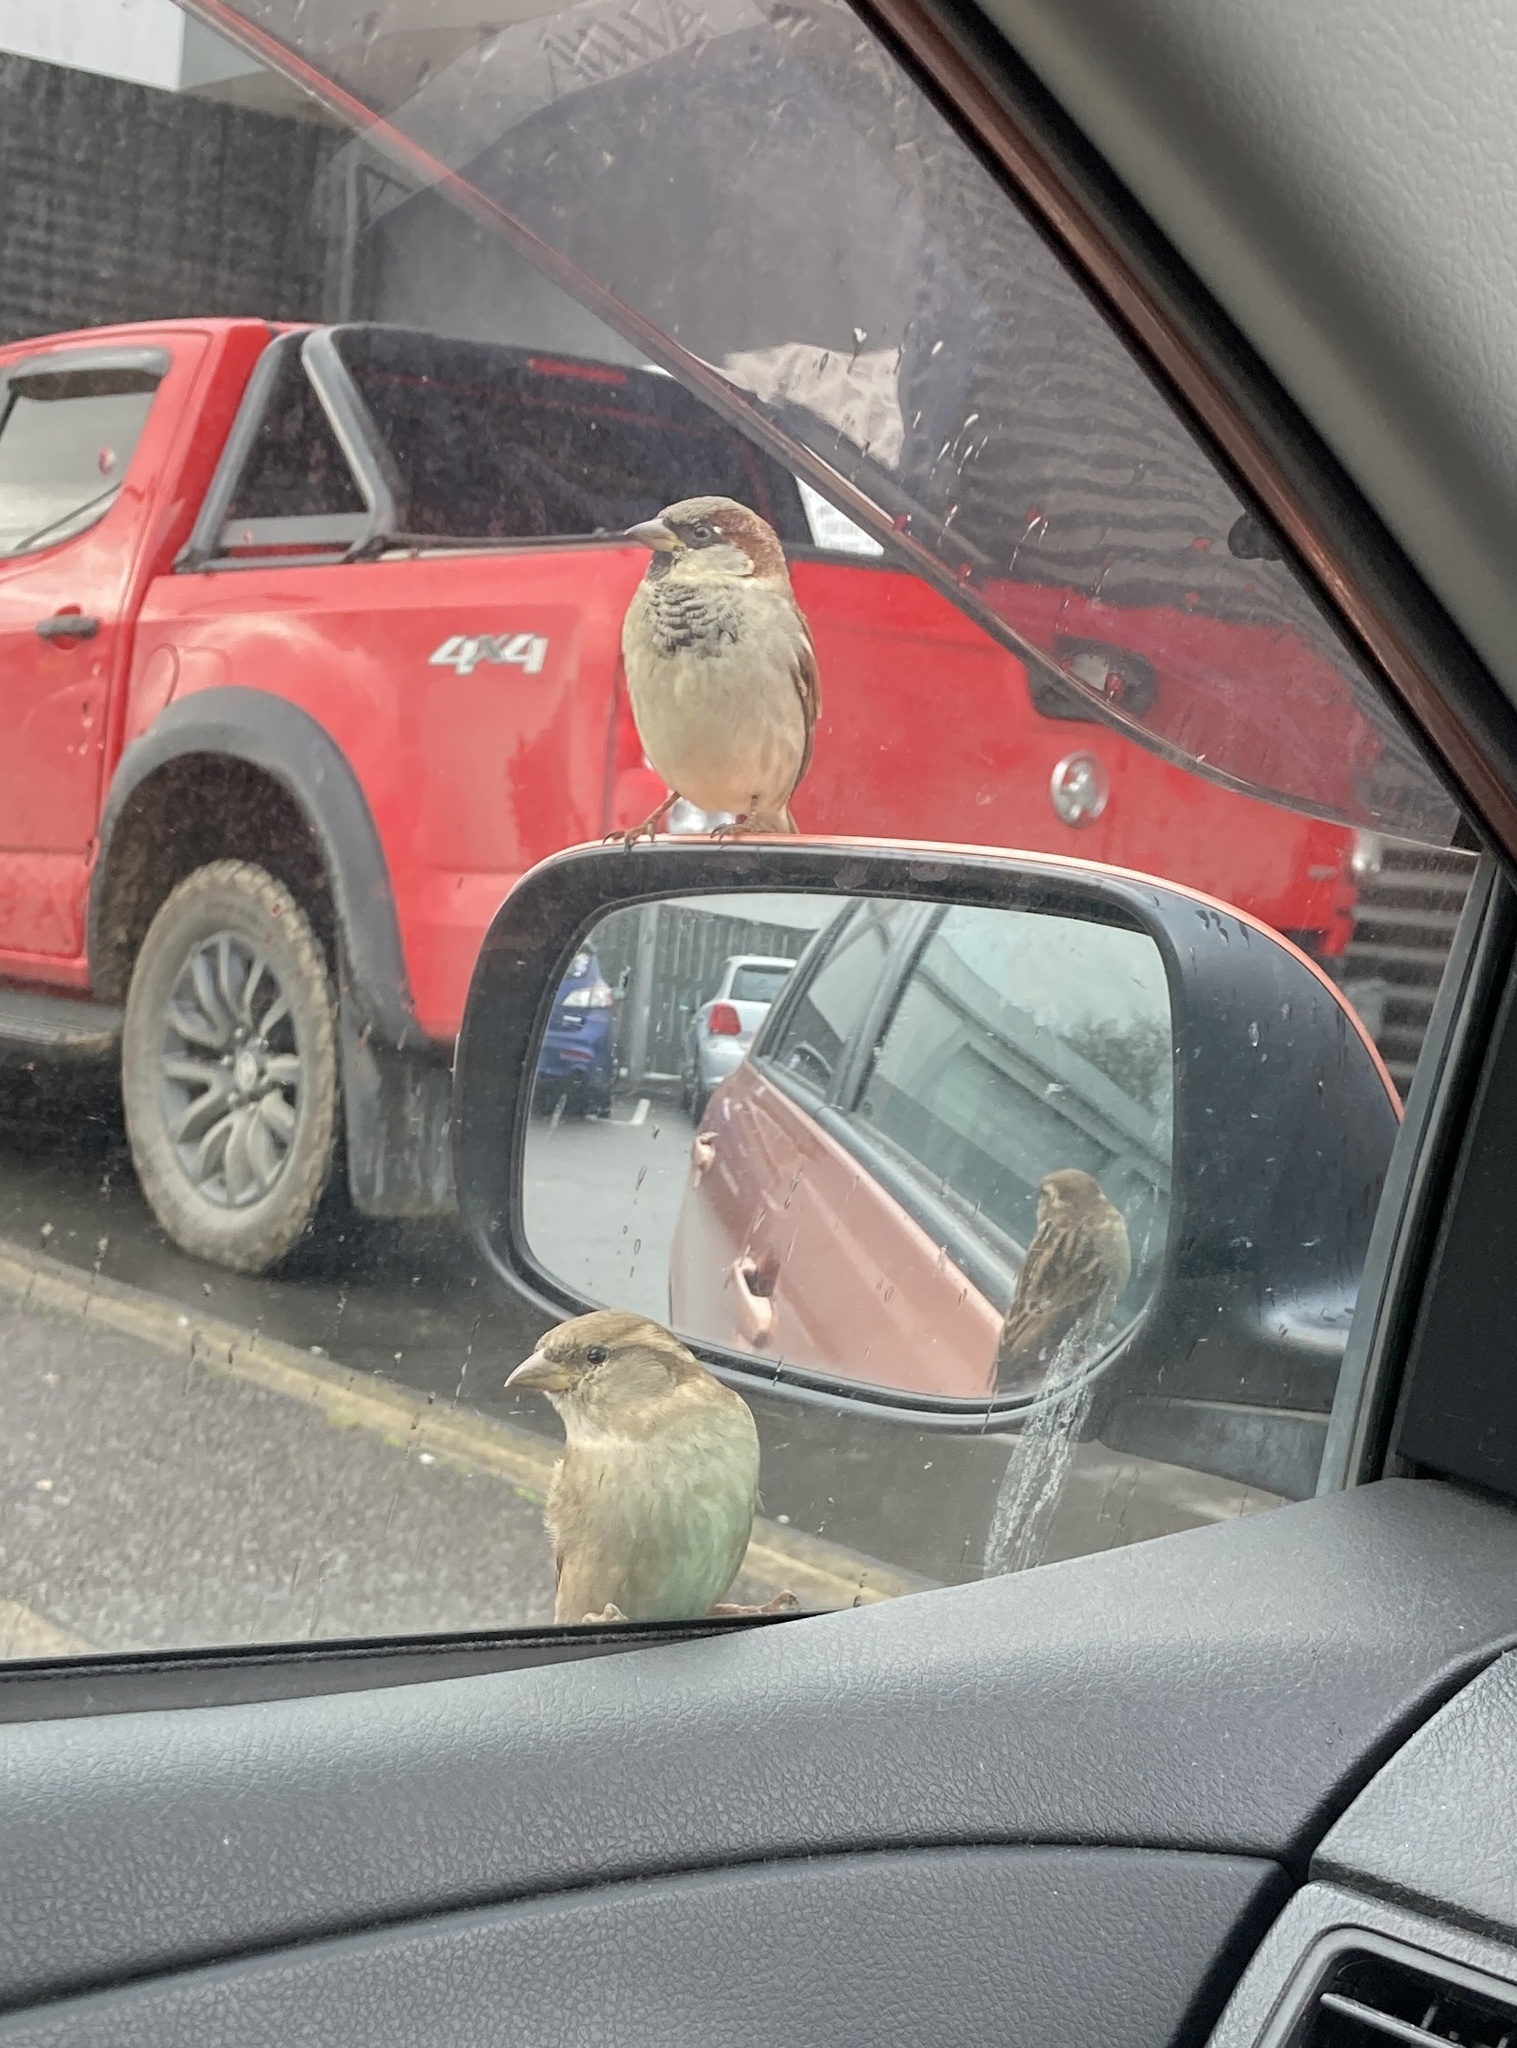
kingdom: Animalia
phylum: Chordata
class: Aves
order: Passeriformes
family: Passeridae
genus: Passer
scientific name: Passer domesticus
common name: House sparrow
